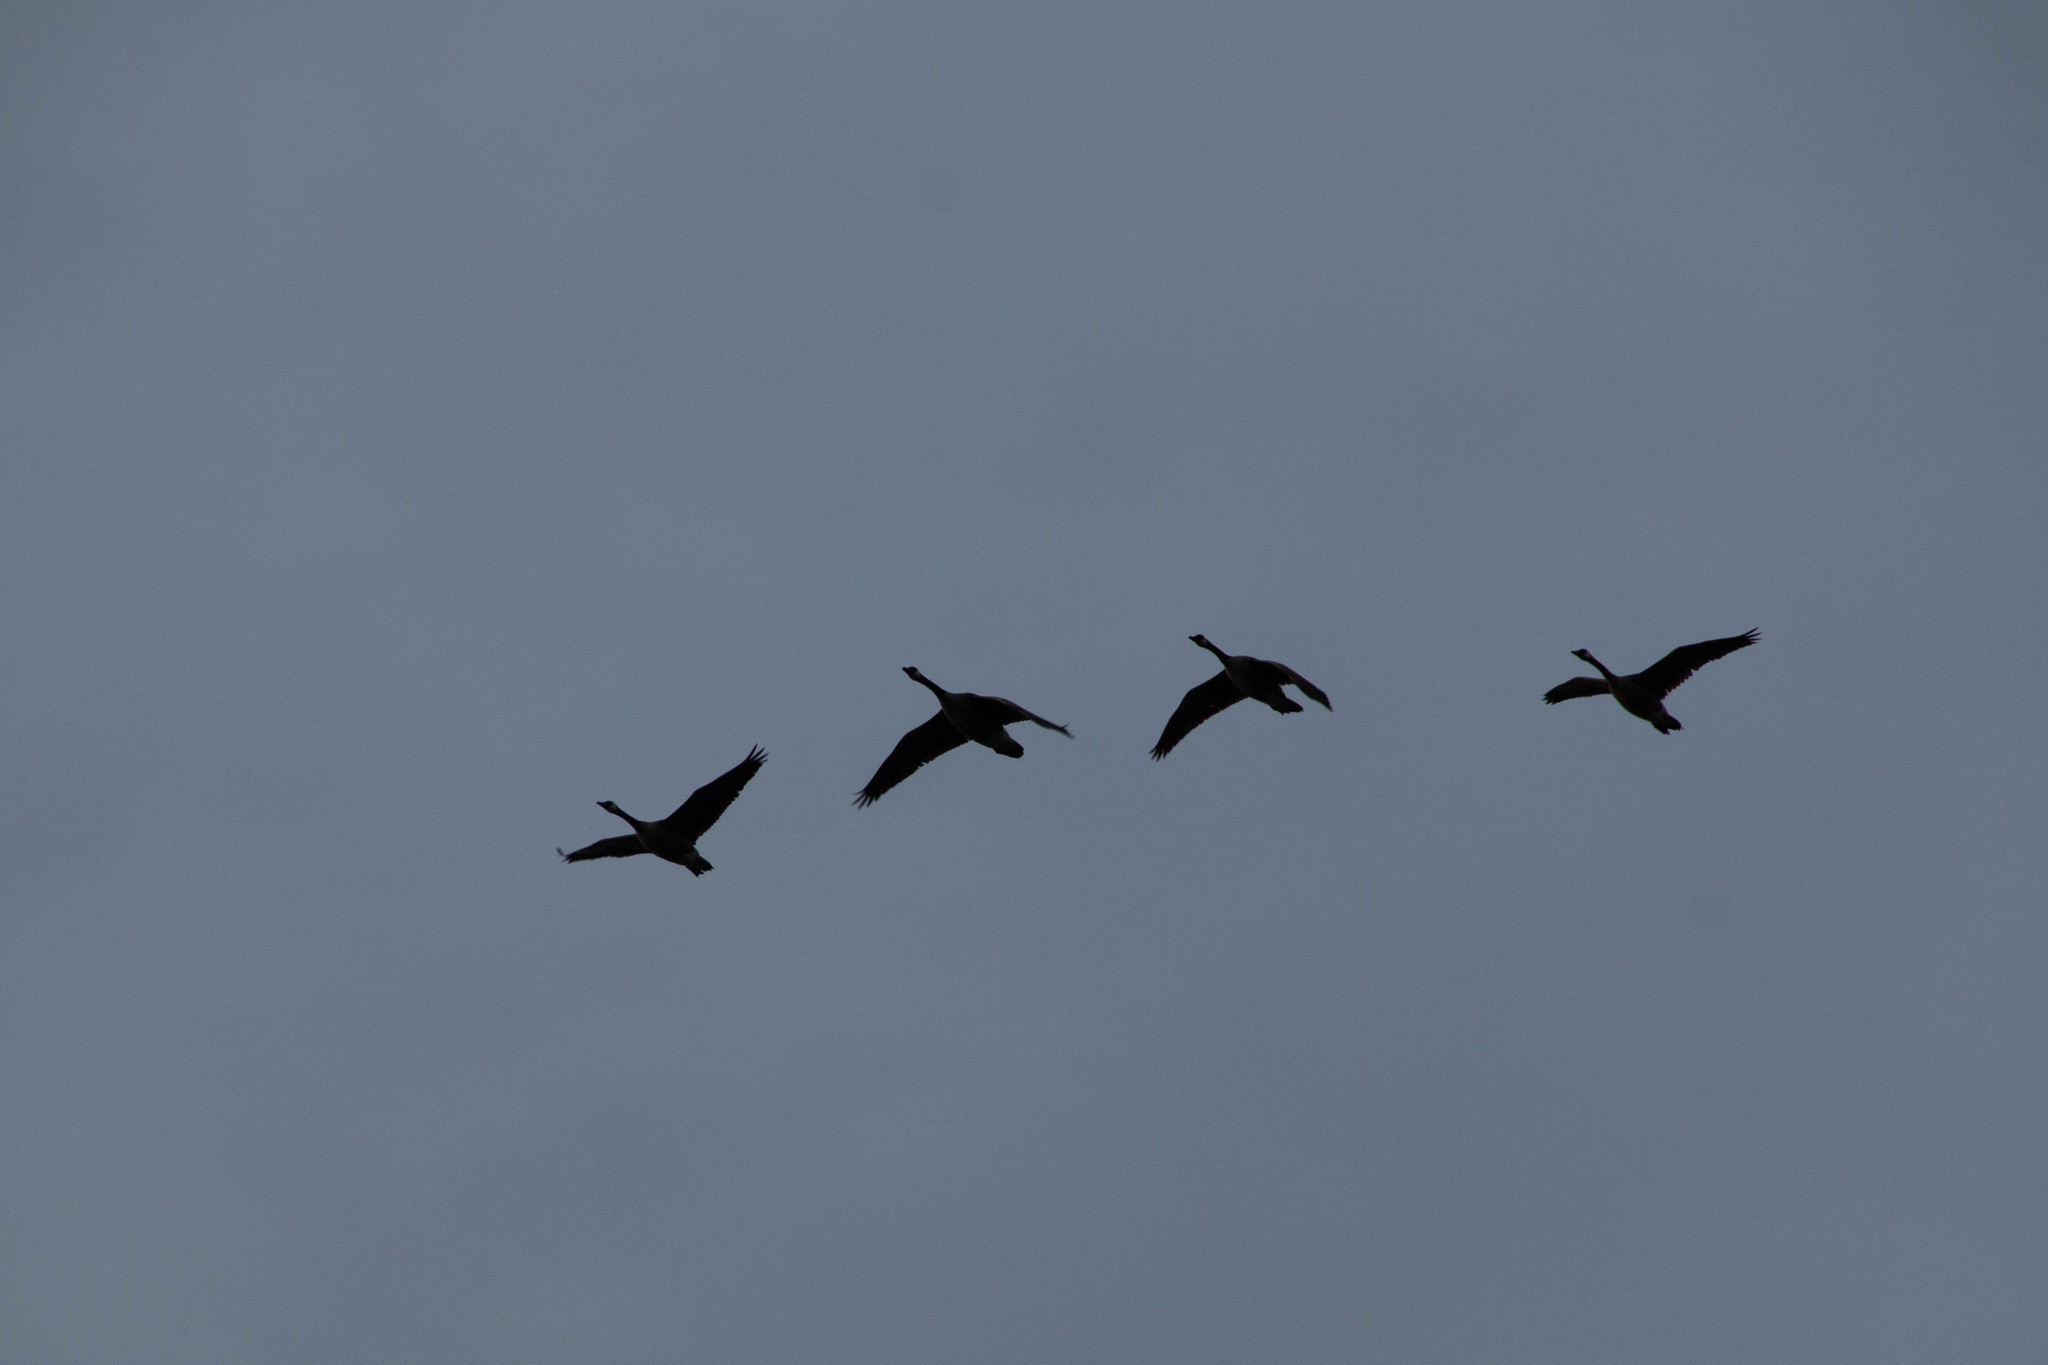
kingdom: Animalia
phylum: Chordata
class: Aves
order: Anseriformes
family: Anatidae
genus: Branta
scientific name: Branta canadensis
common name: Canada goose
